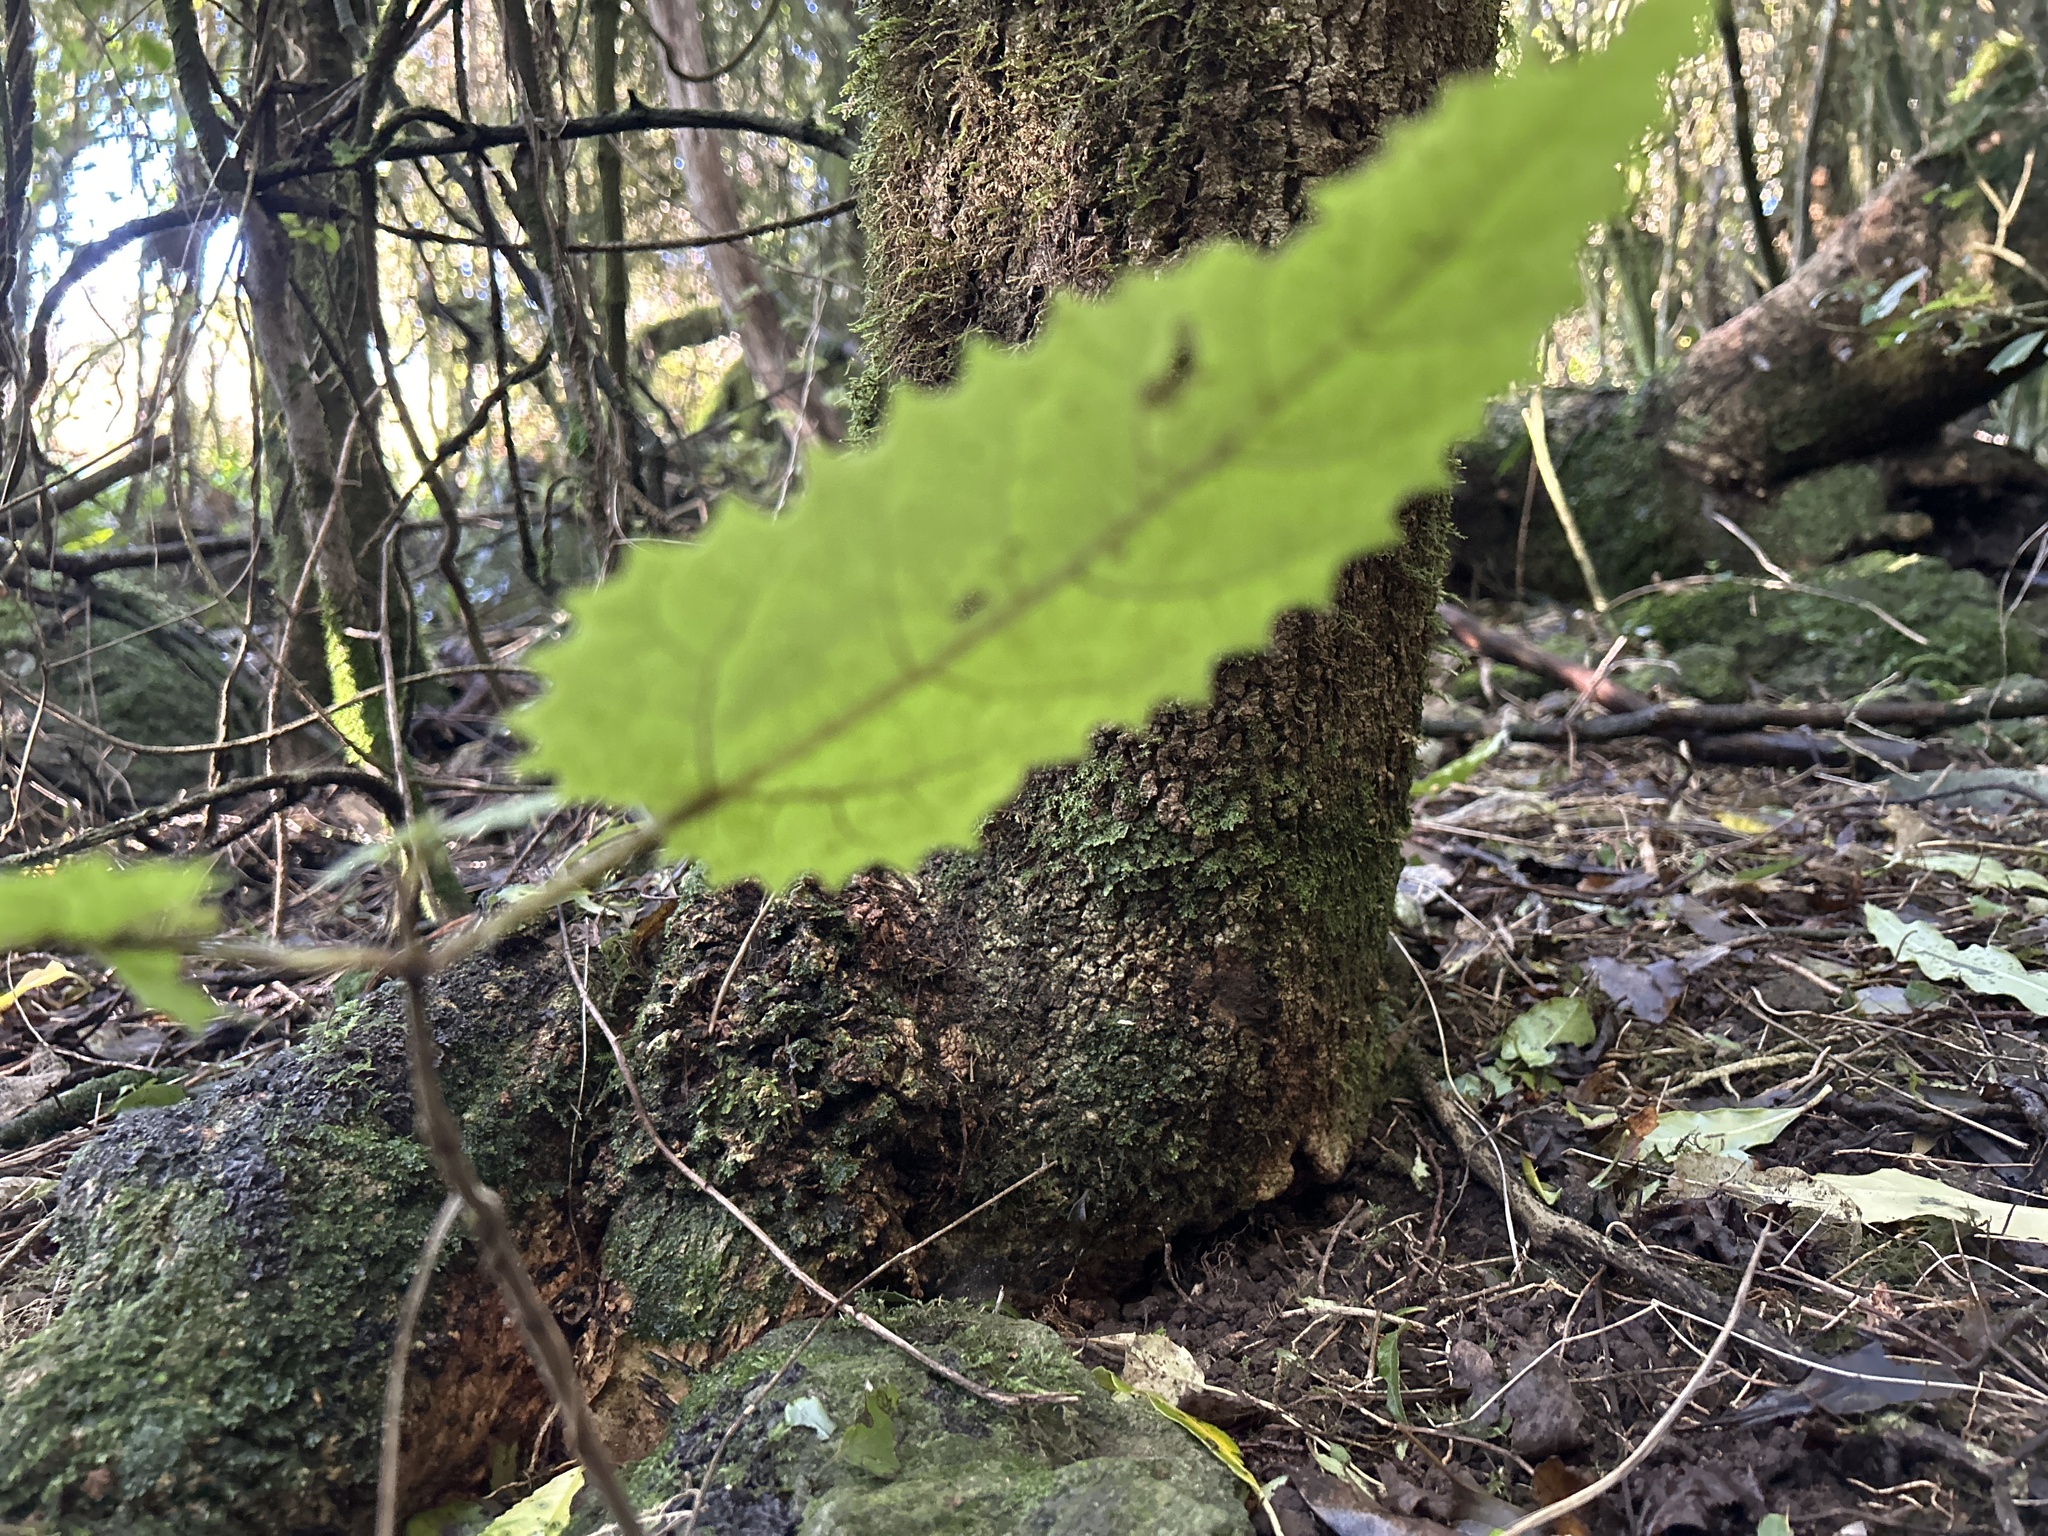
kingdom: Plantae
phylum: Tracheophyta
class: Magnoliopsida
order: Rosales
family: Urticaceae
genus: Urtica
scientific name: Urtica ferox
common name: Tree nettle
